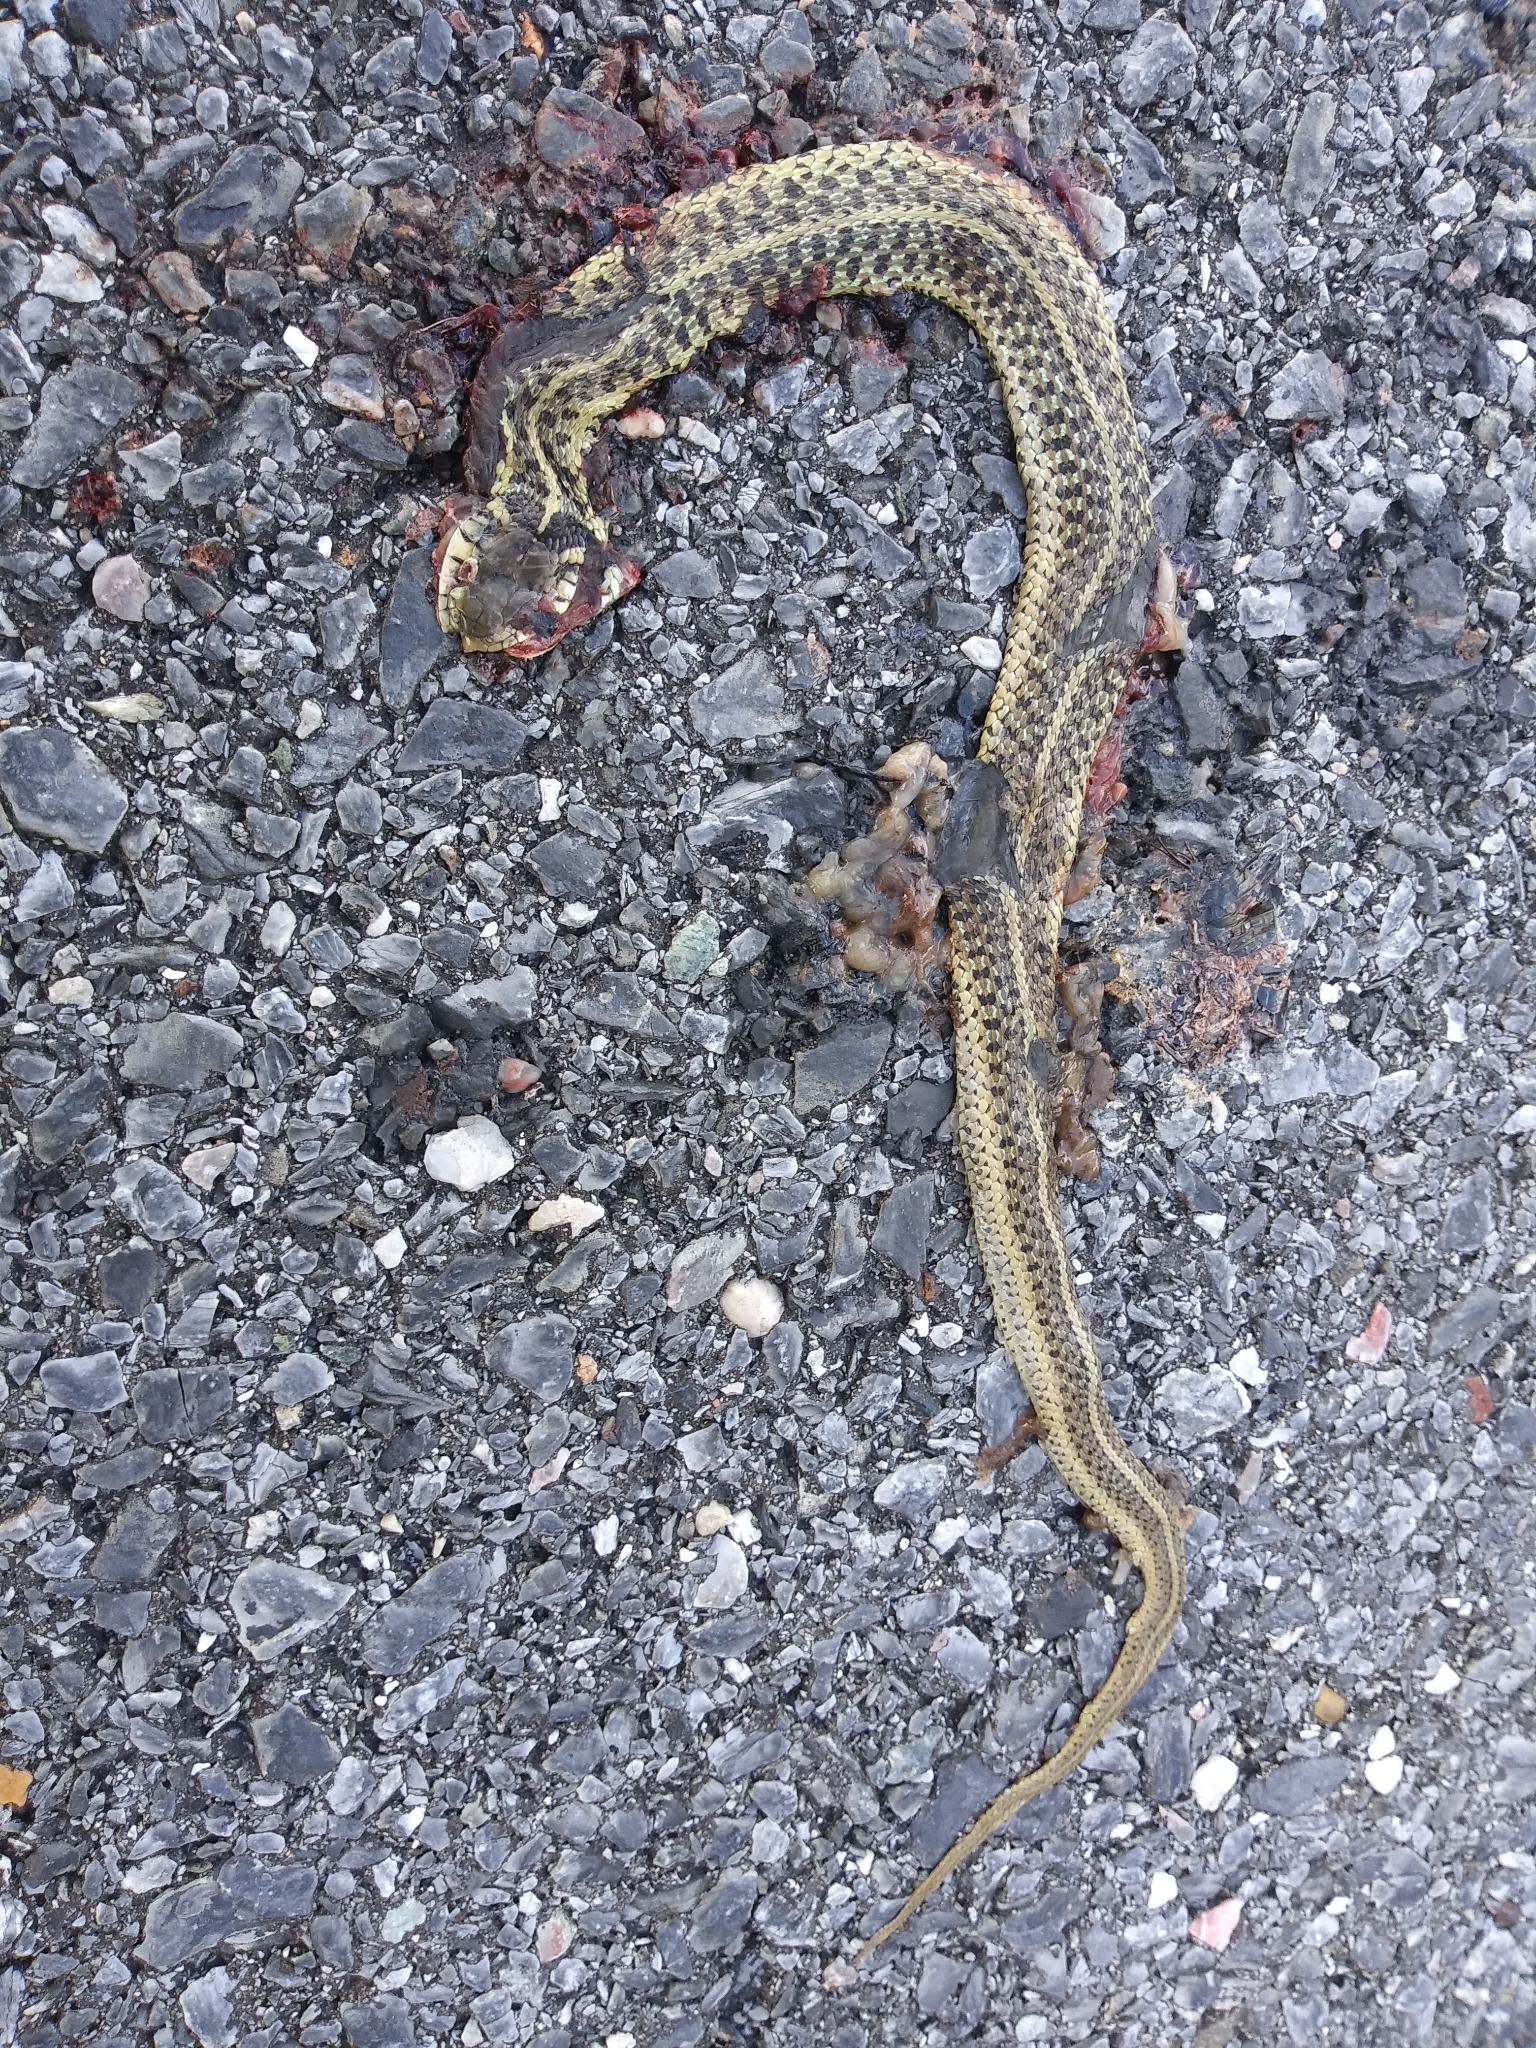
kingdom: Animalia
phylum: Chordata
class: Squamata
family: Colubridae
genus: Thamnophis
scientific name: Thamnophis sirtalis
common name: Common garter snake
